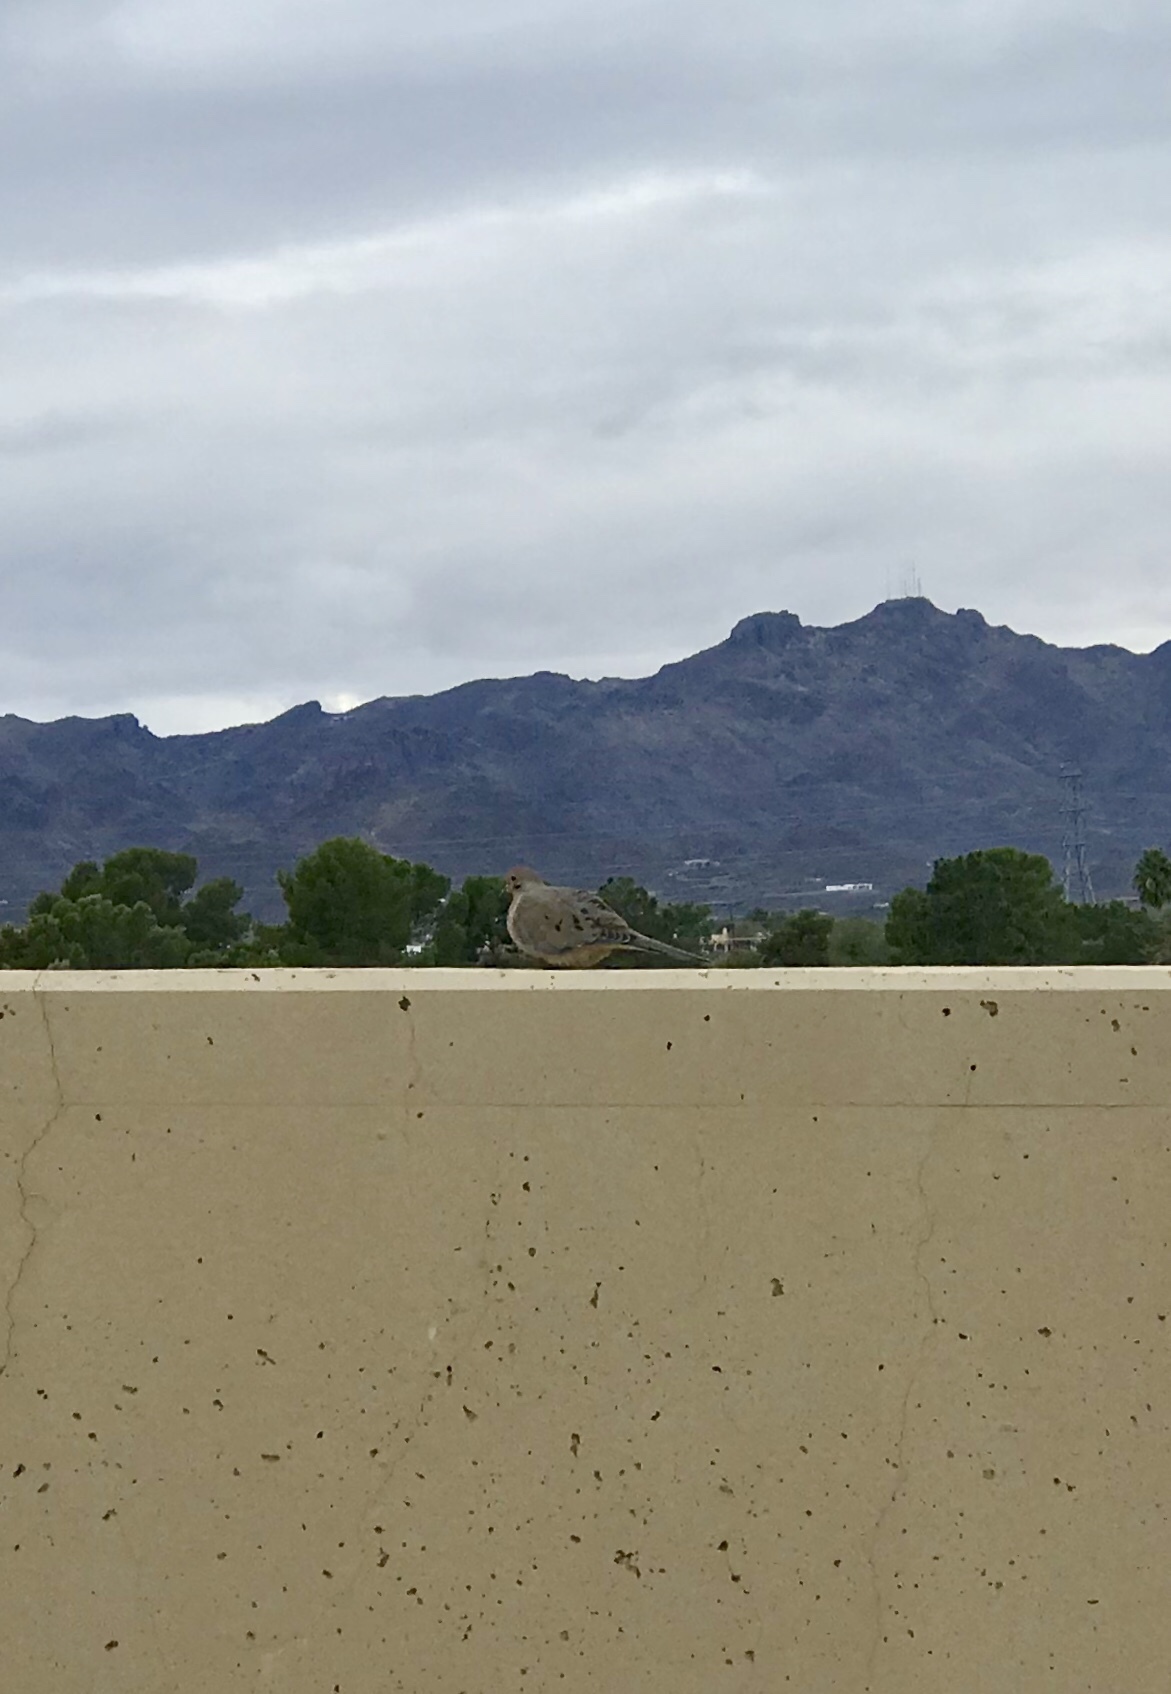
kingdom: Animalia
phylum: Chordata
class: Aves
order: Columbiformes
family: Columbidae
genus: Zenaida
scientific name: Zenaida macroura
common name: Mourning dove
